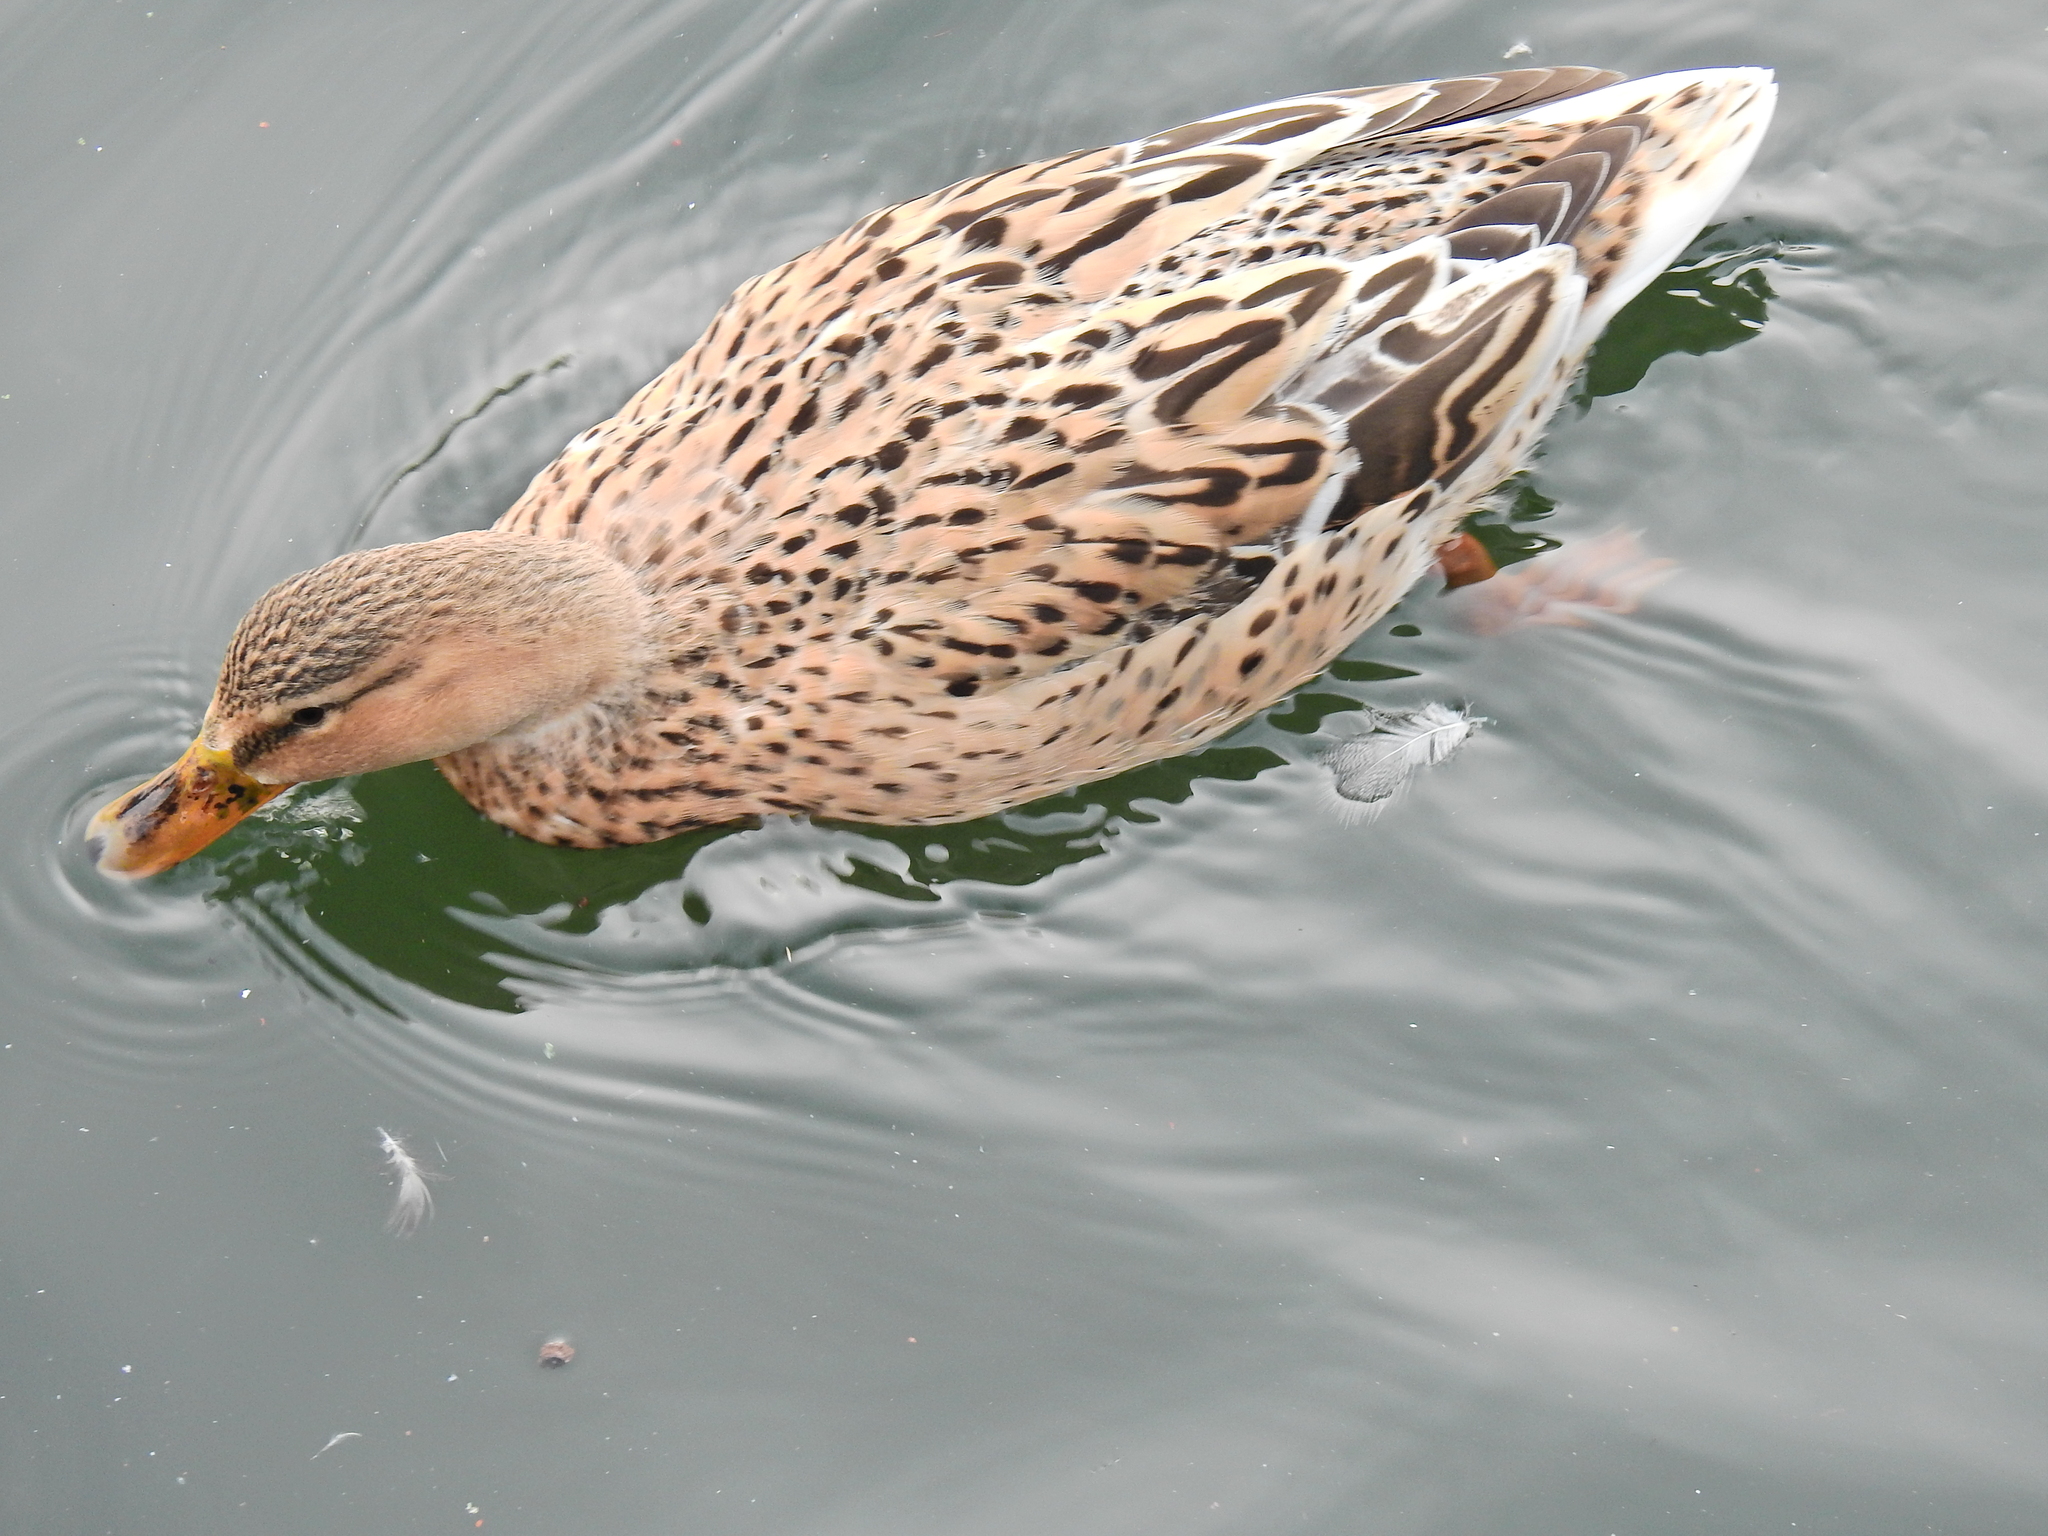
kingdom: Animalia
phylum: Chordata
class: Aves
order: Anseriformes
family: Anatidae
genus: Anas
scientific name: Anas platyrhynchos
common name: Mallard
